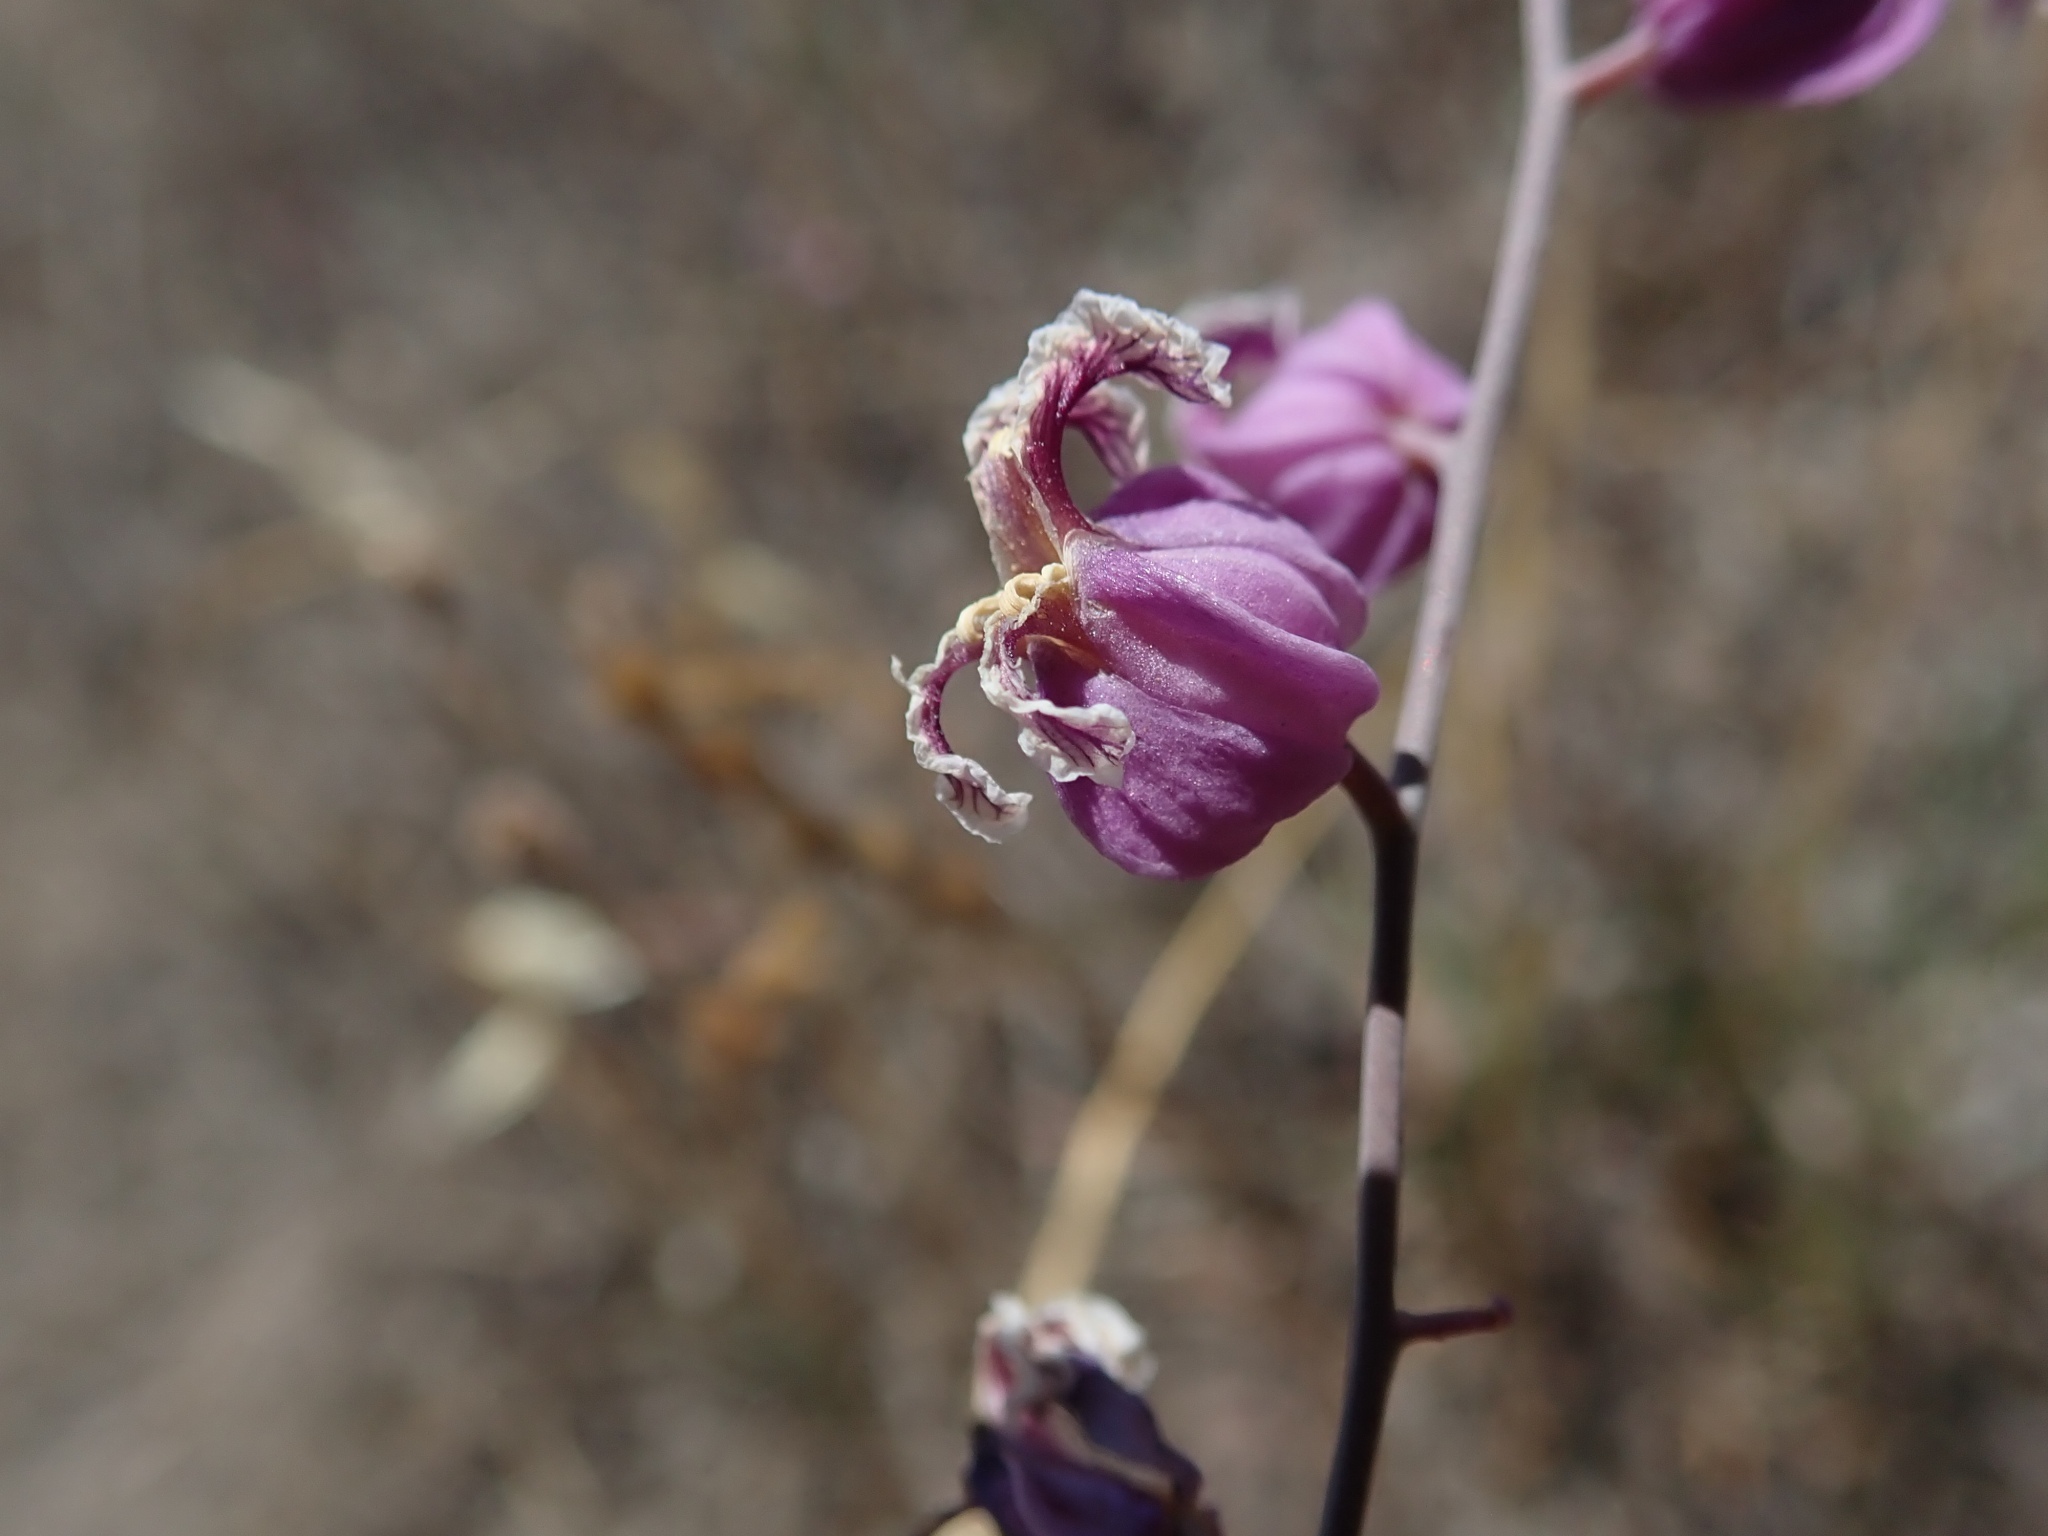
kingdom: Plantae
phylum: Tracheophyta
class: Magnoliopsida
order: Brassicales
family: Brassicaceae
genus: Streptanthus
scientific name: Streptanthus glandulosus
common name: Jewel-flower
